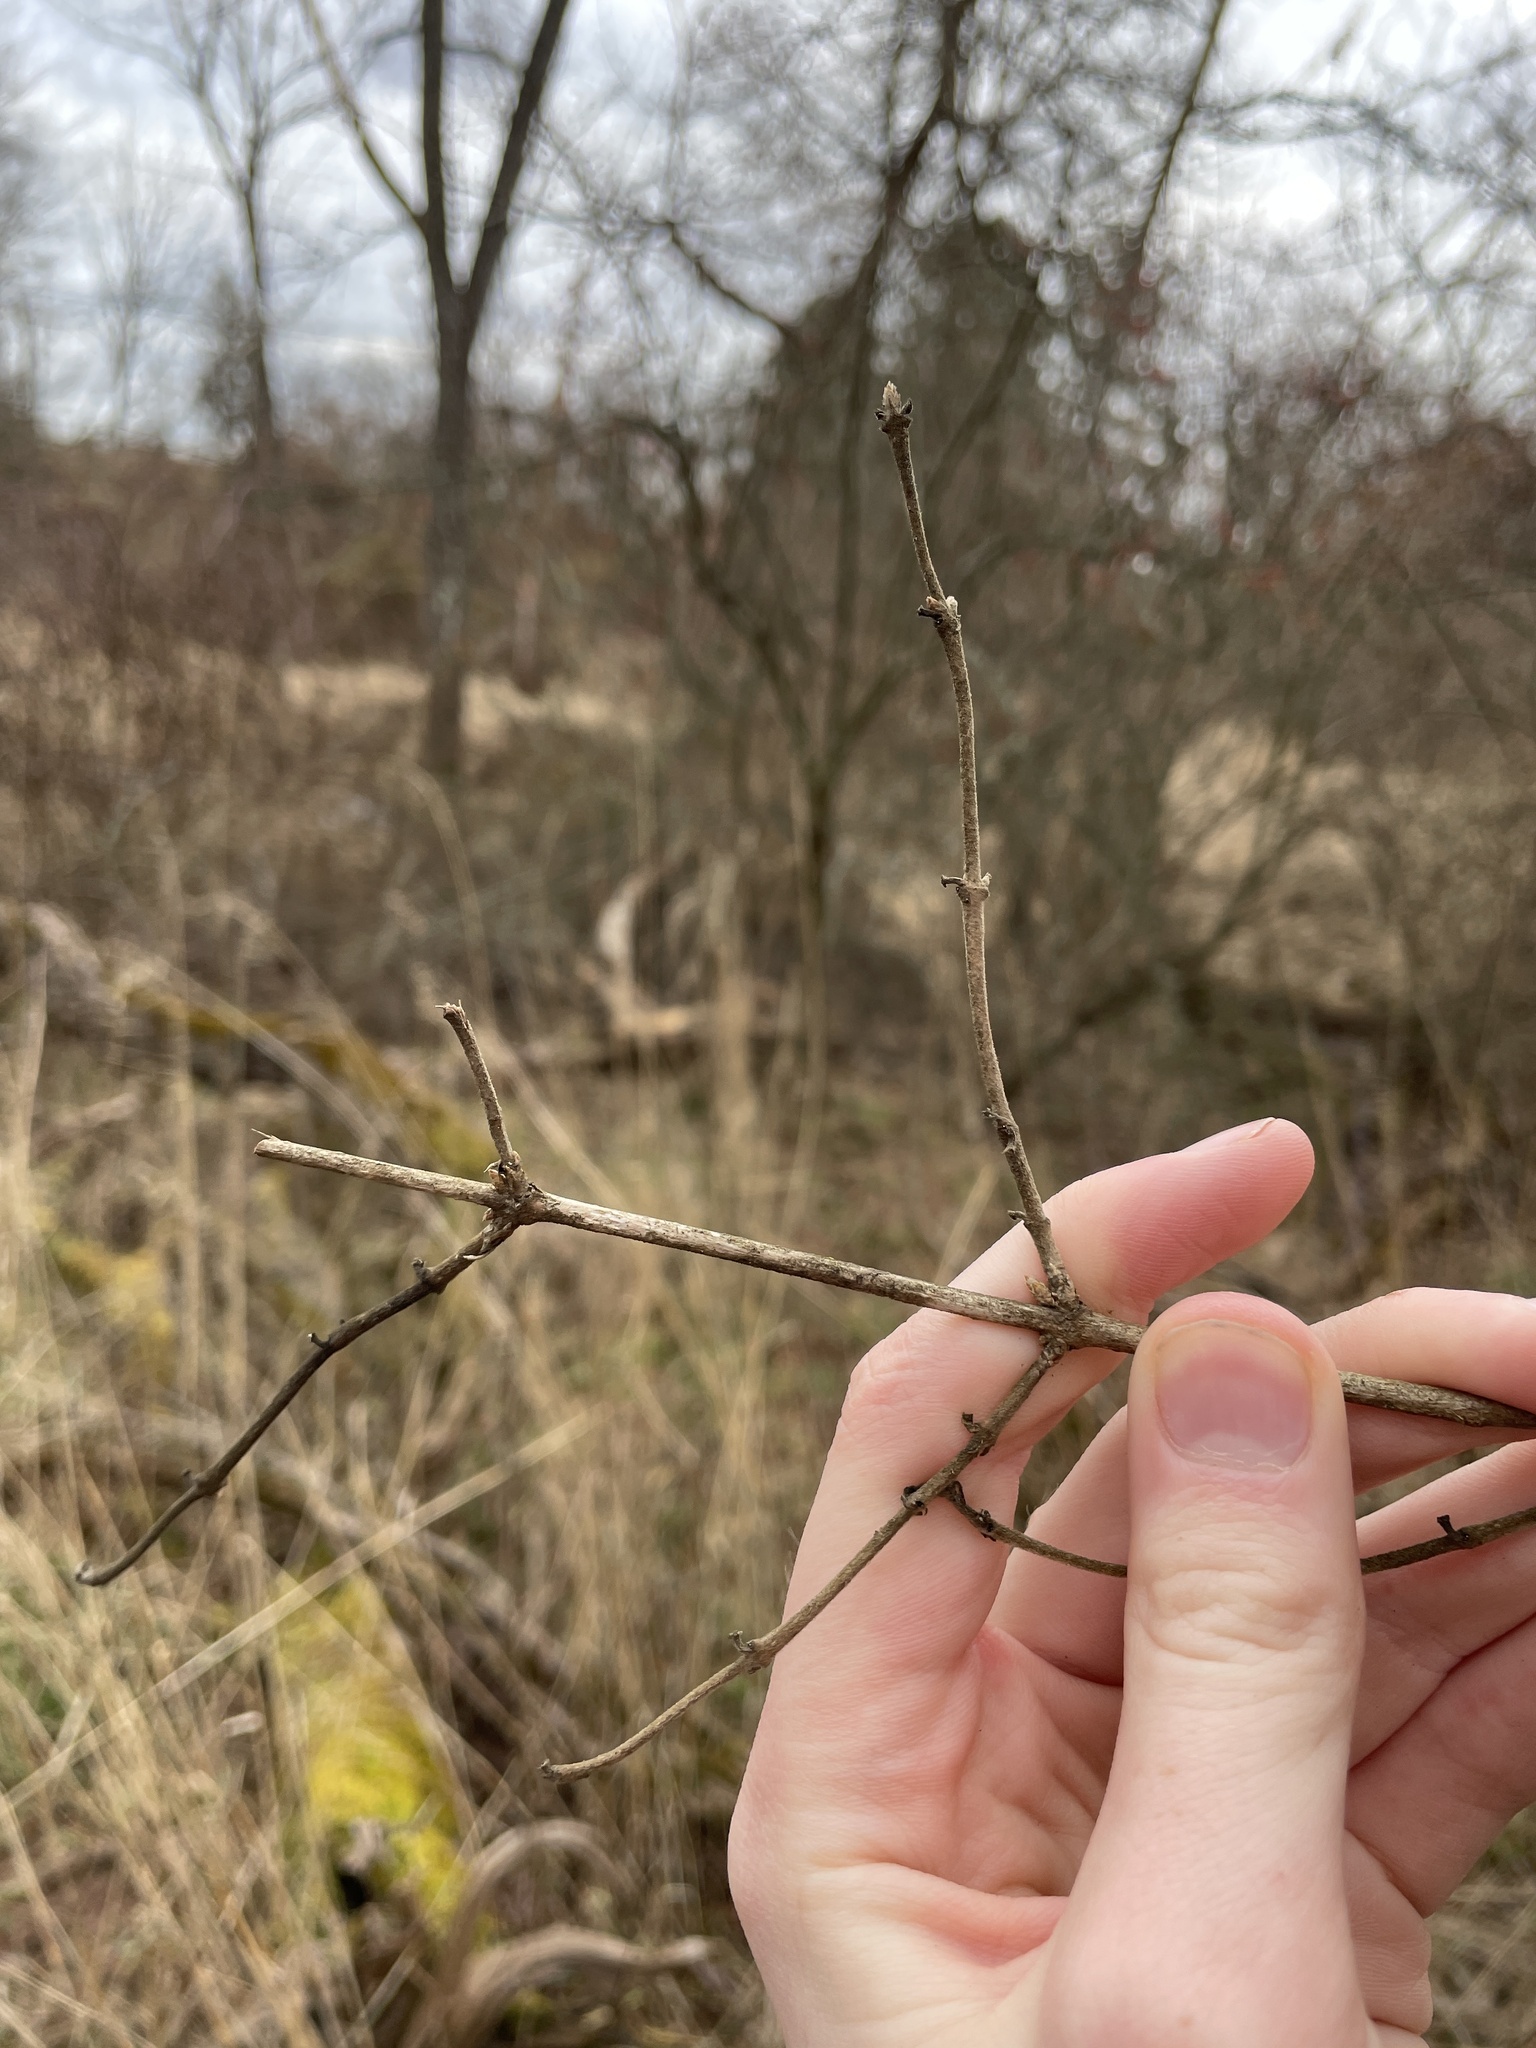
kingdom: Plantae
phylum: Tracheophyta
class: Magnoliopsida
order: Dipsacales
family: Caprifoliaceae
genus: Lonicera
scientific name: Lonicera maackii
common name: Amur honeysuckle
